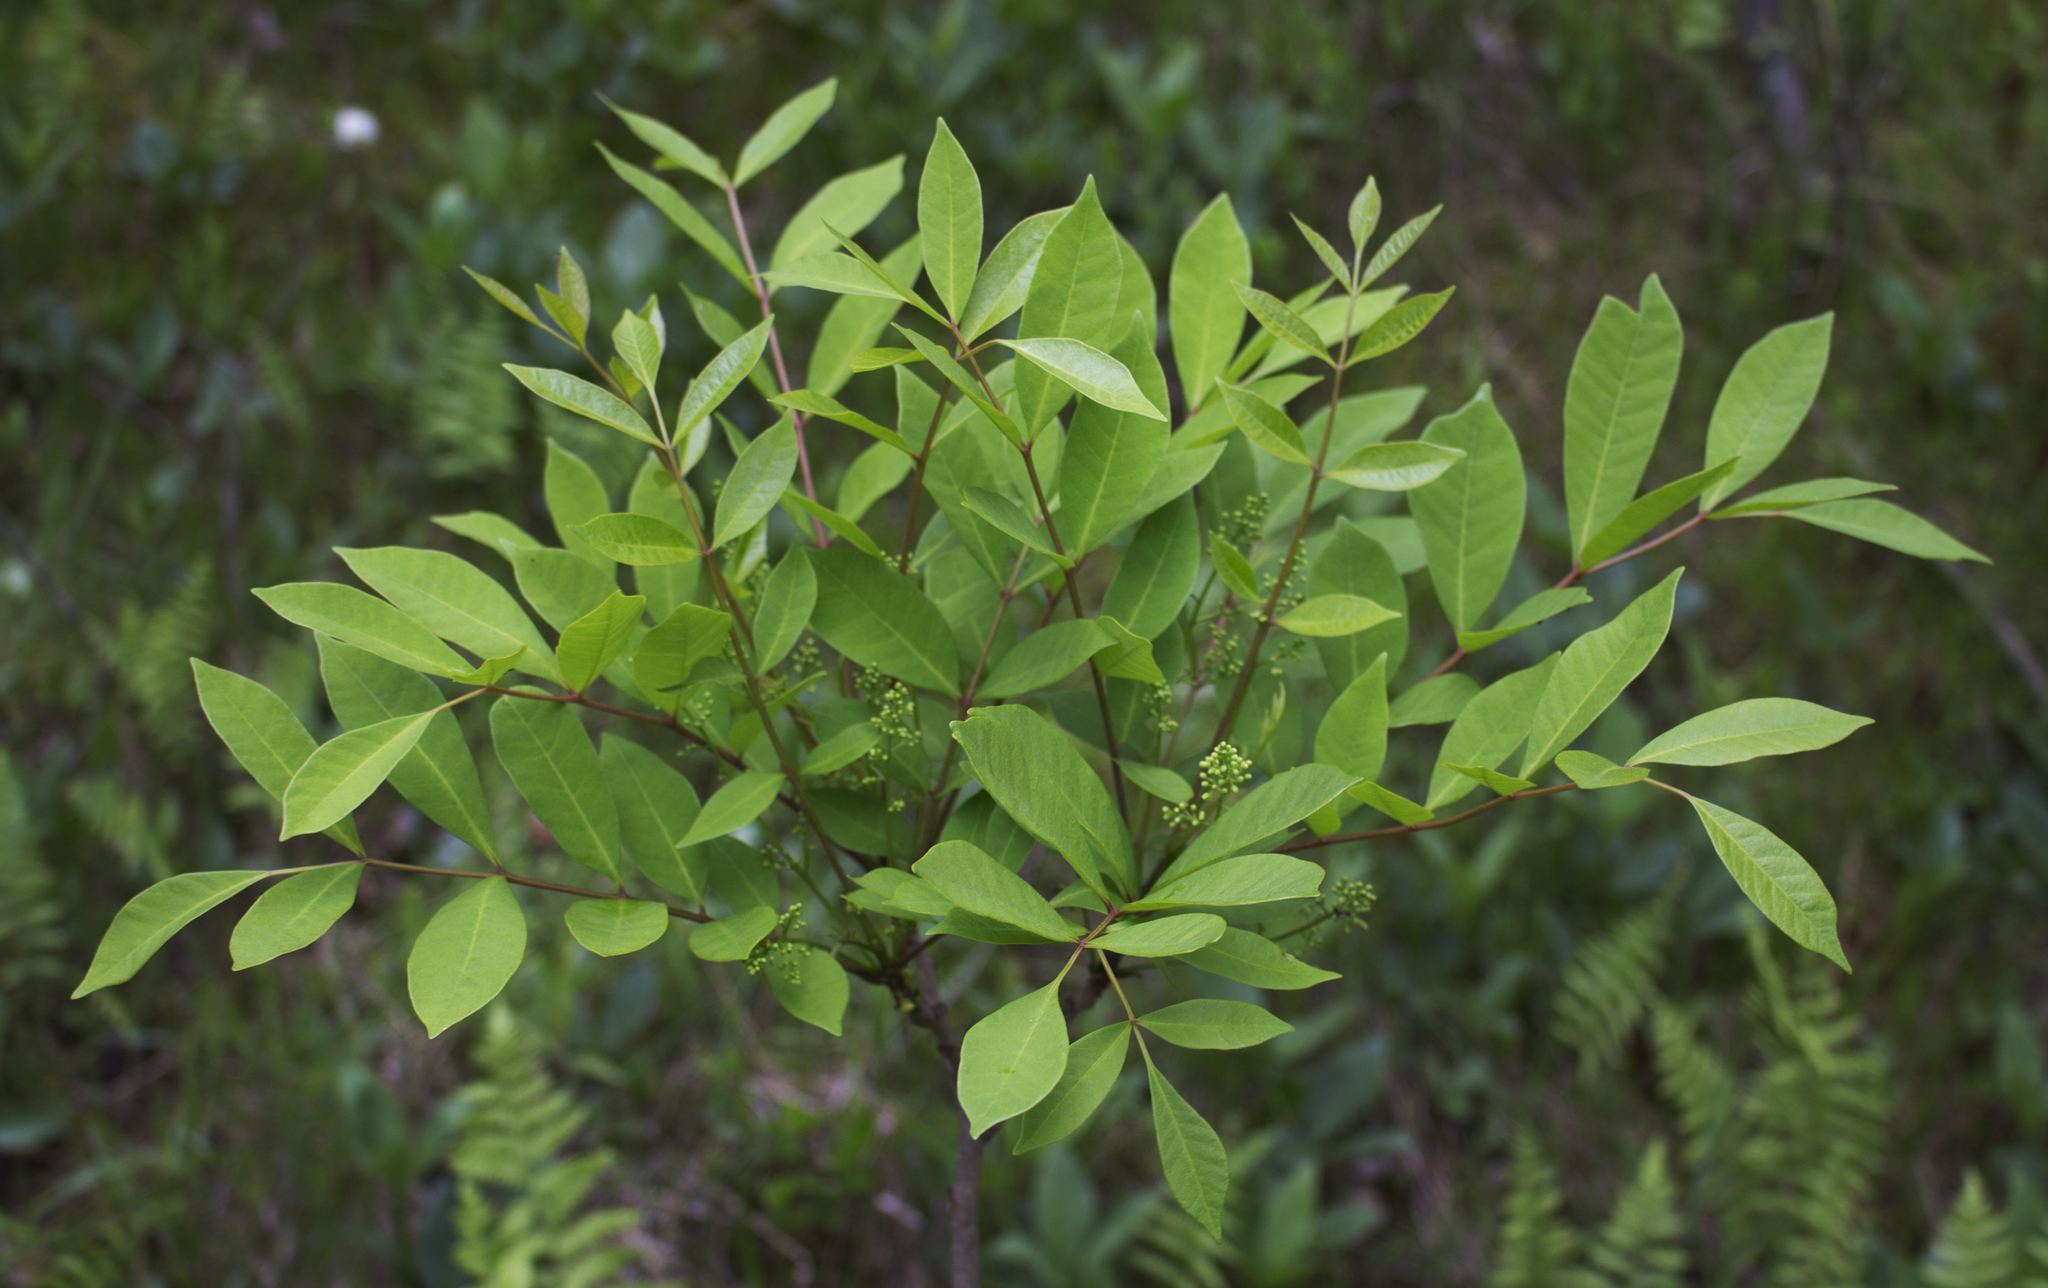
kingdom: Plantae
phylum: Tracheophyta
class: Magnoliopsida
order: Sapindales
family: Anacardiaceae
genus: Toxicodendron
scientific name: Toxicodendron vernix
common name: Poison sumac
